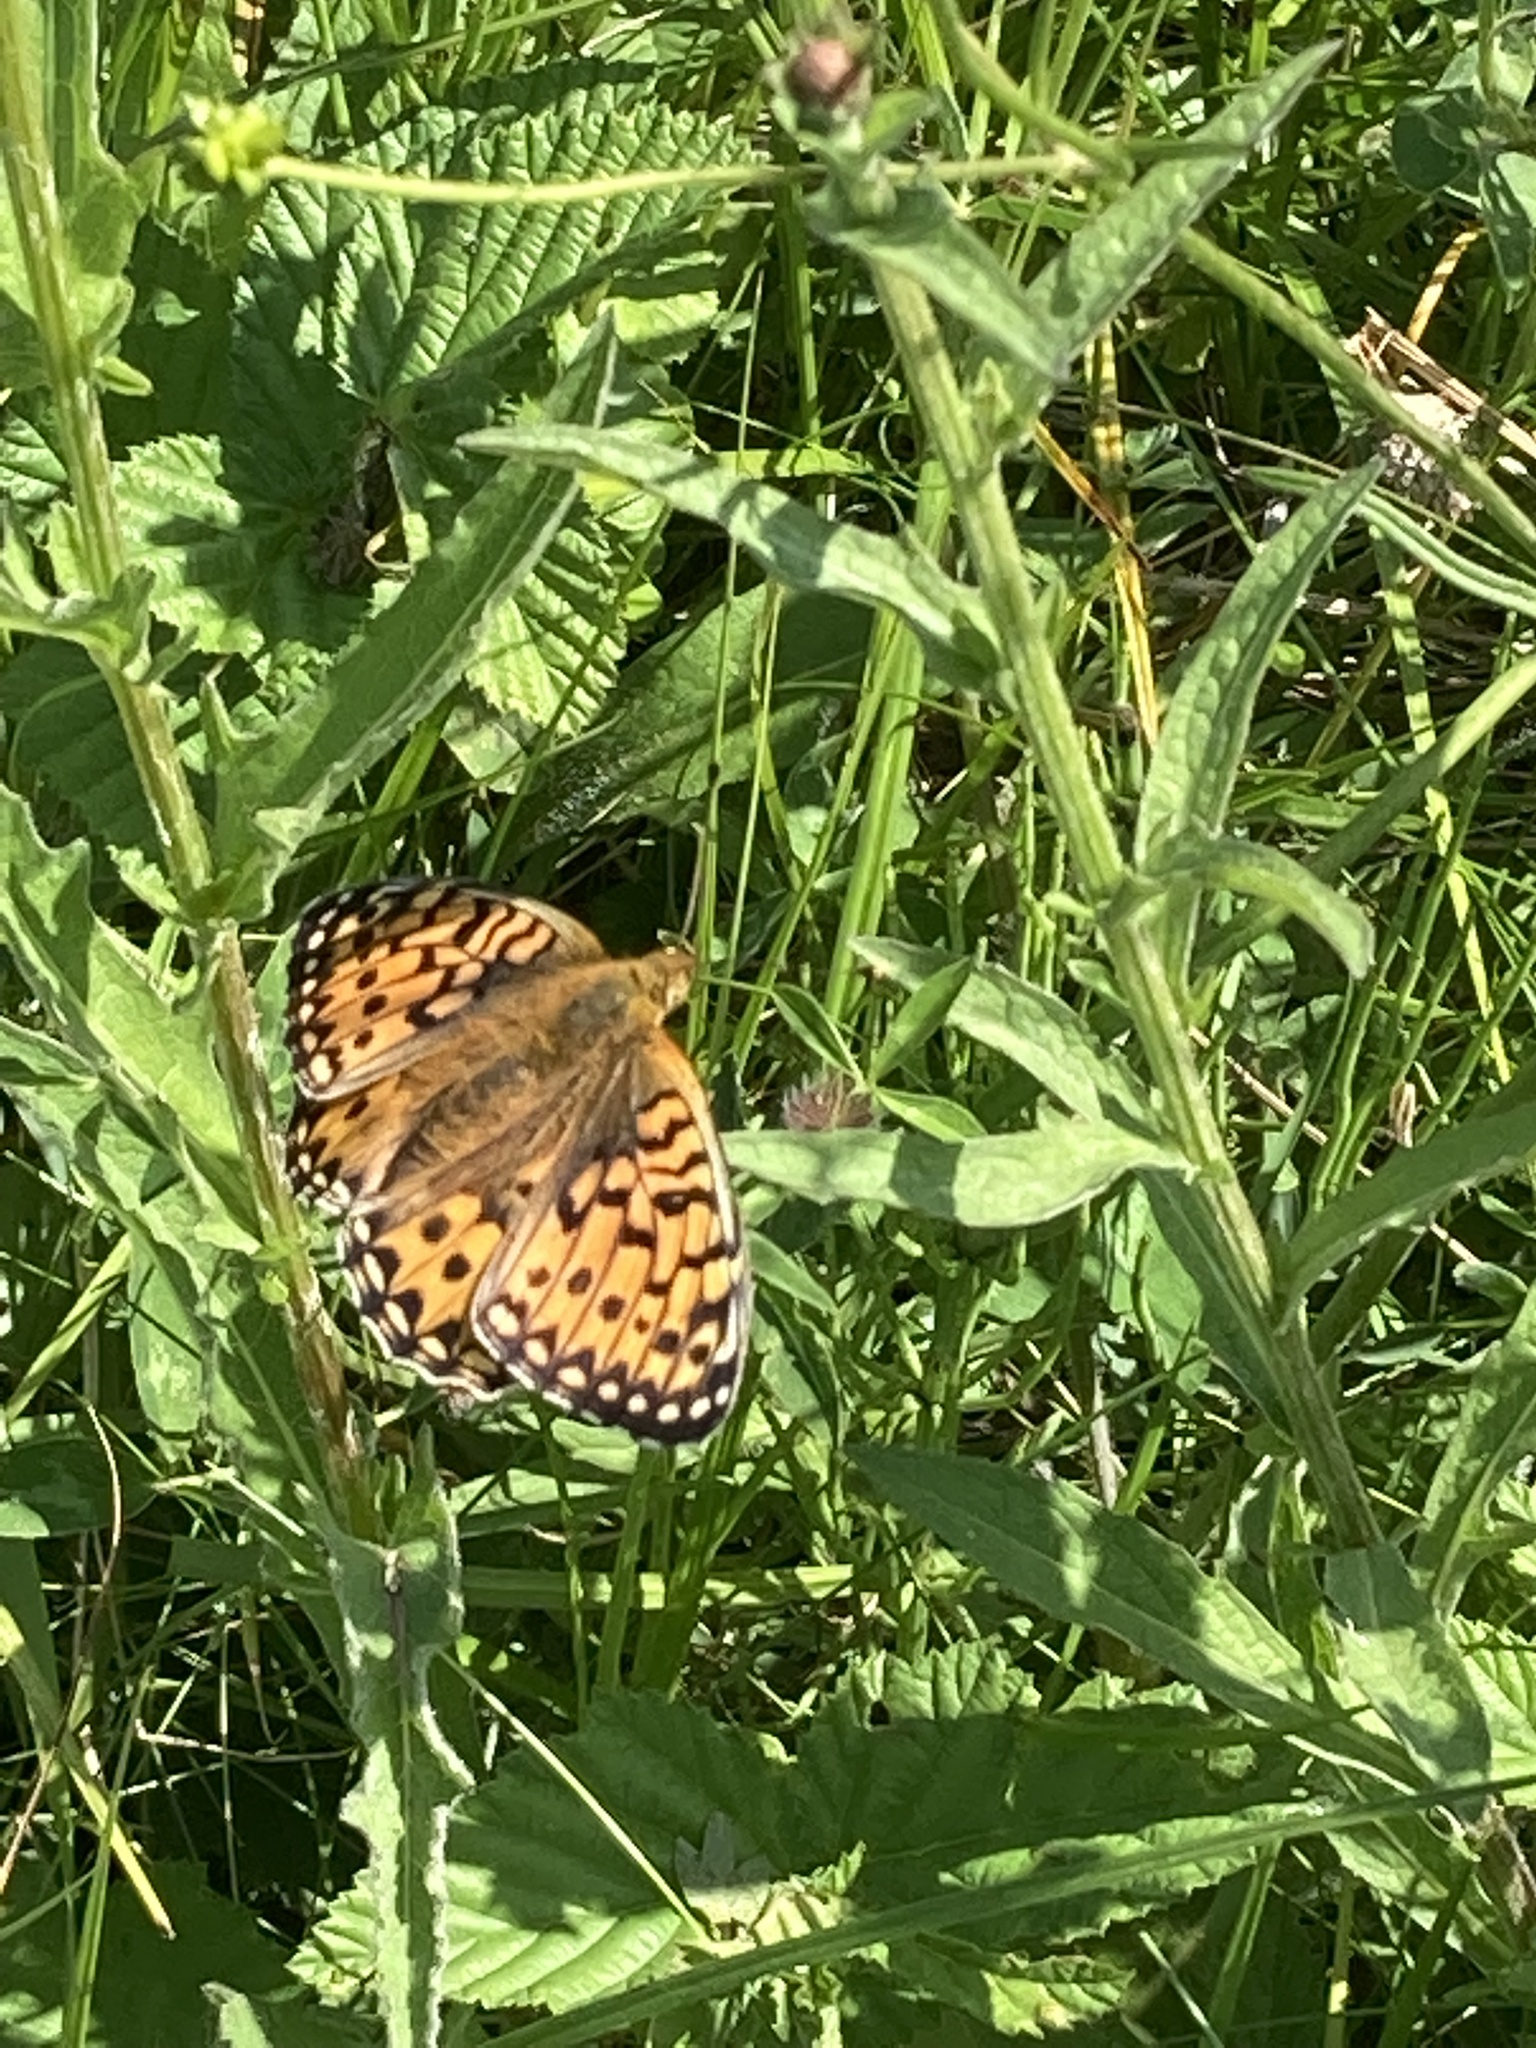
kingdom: Animalia
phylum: Arthropoda
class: Insecta
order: Lepidoptera
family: Nymphalidae
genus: Speyeria
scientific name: Speyeria aglaja
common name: Dark green fritillary
